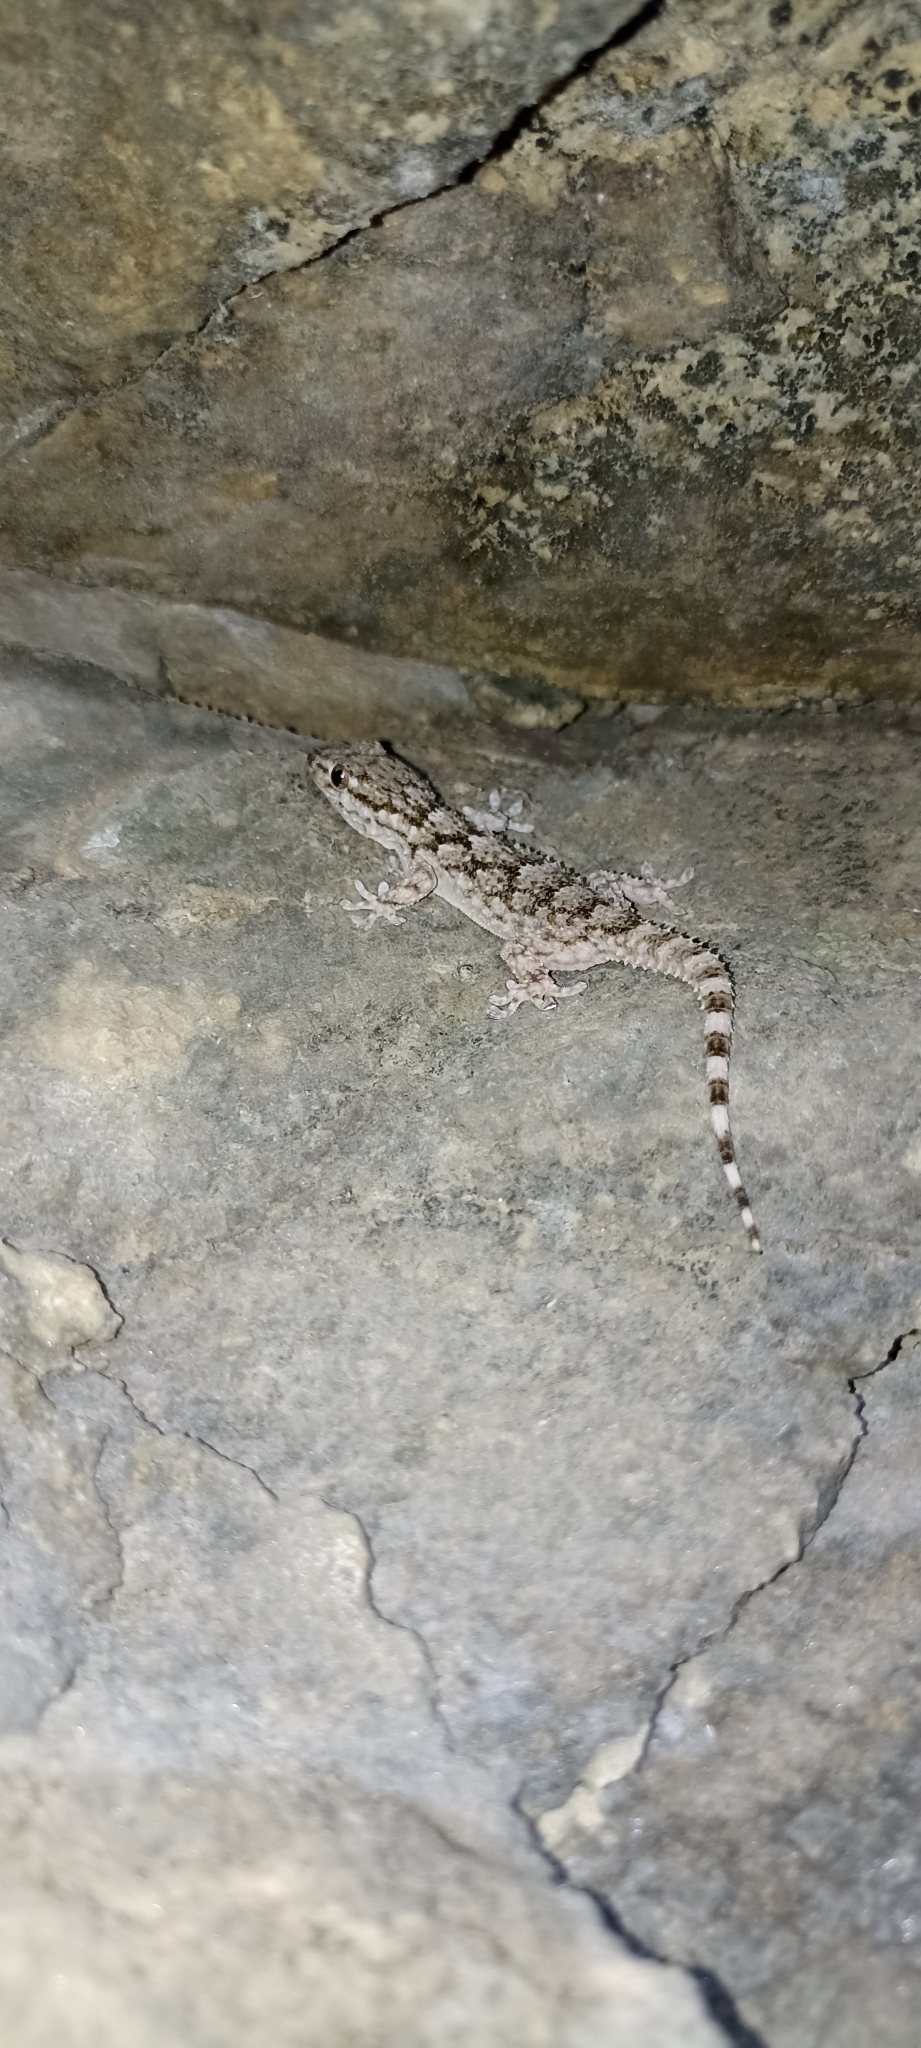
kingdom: Animalia
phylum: Chordata
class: Squamata
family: Phyllodactylidae
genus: Tarentola
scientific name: Tarentola mauritanica
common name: Moorish gecko
